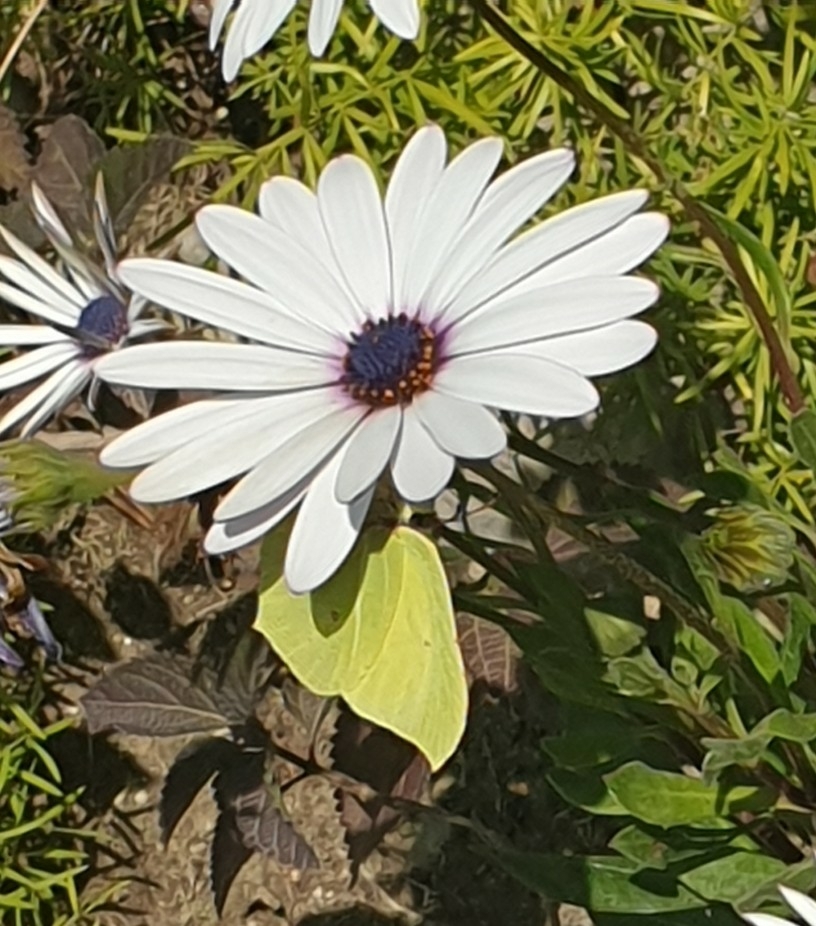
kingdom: Animalia
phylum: Arthropoda
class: Insecta
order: Lepidoptera
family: Pieridae
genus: Gonepteryx
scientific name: Gonepteryx rhamni
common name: Brimstone
